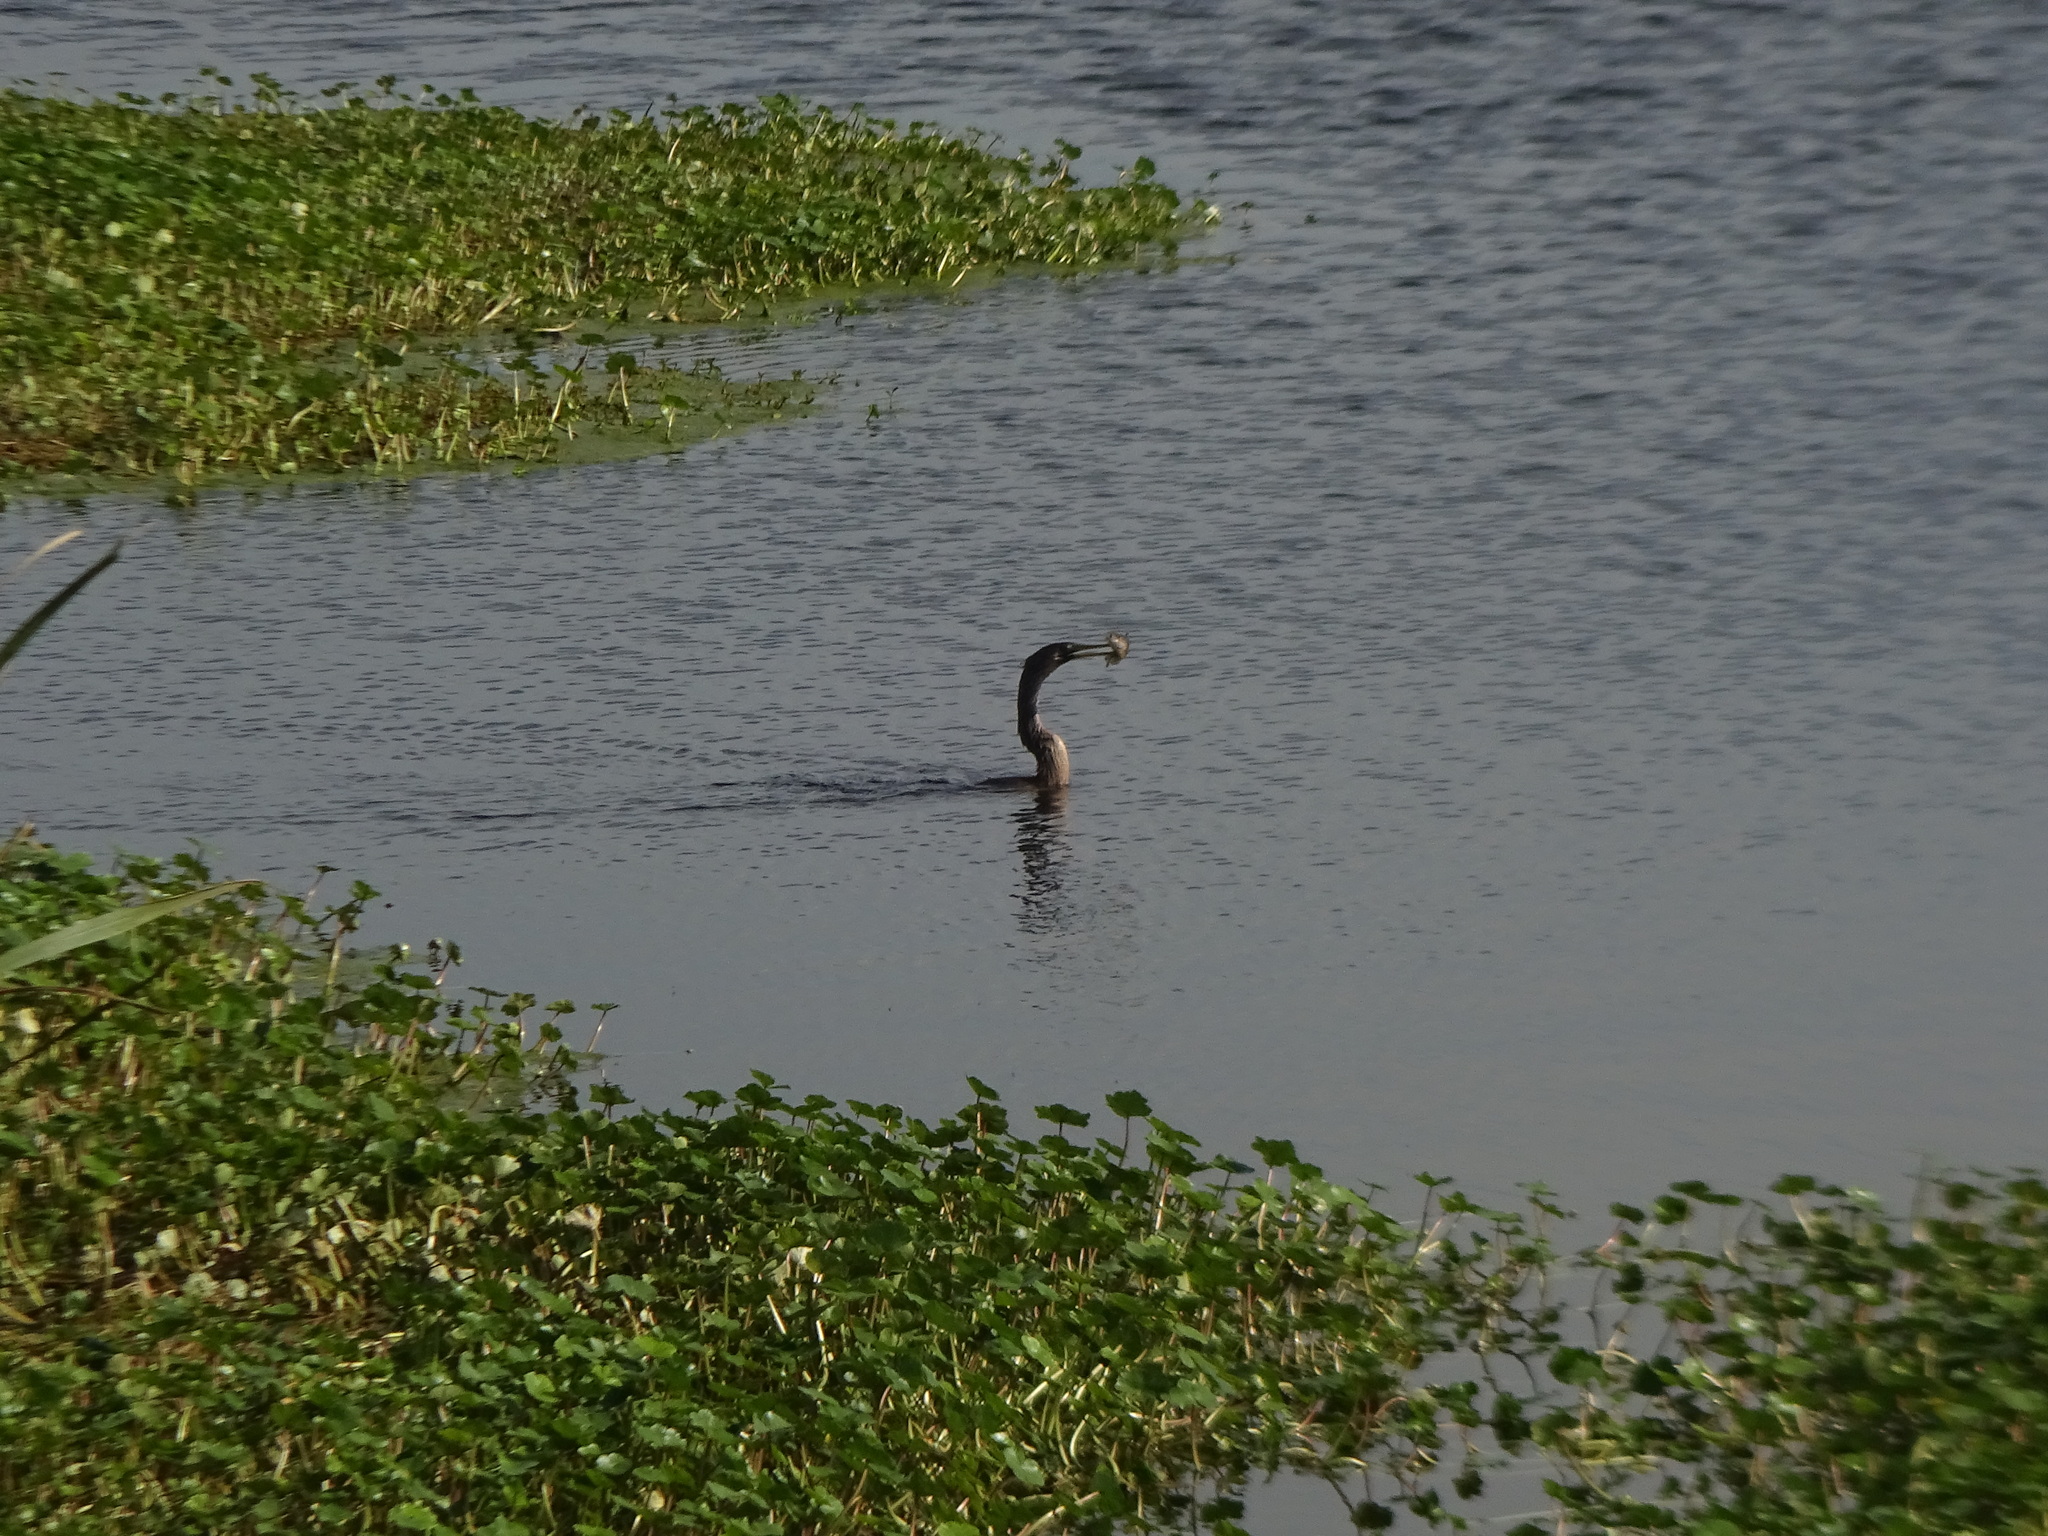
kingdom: Animalia
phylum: Chordata
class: Aves
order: Suliformes
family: Anhingidae
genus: Anhinga
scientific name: Anhinga anhinga
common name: Anhinga
